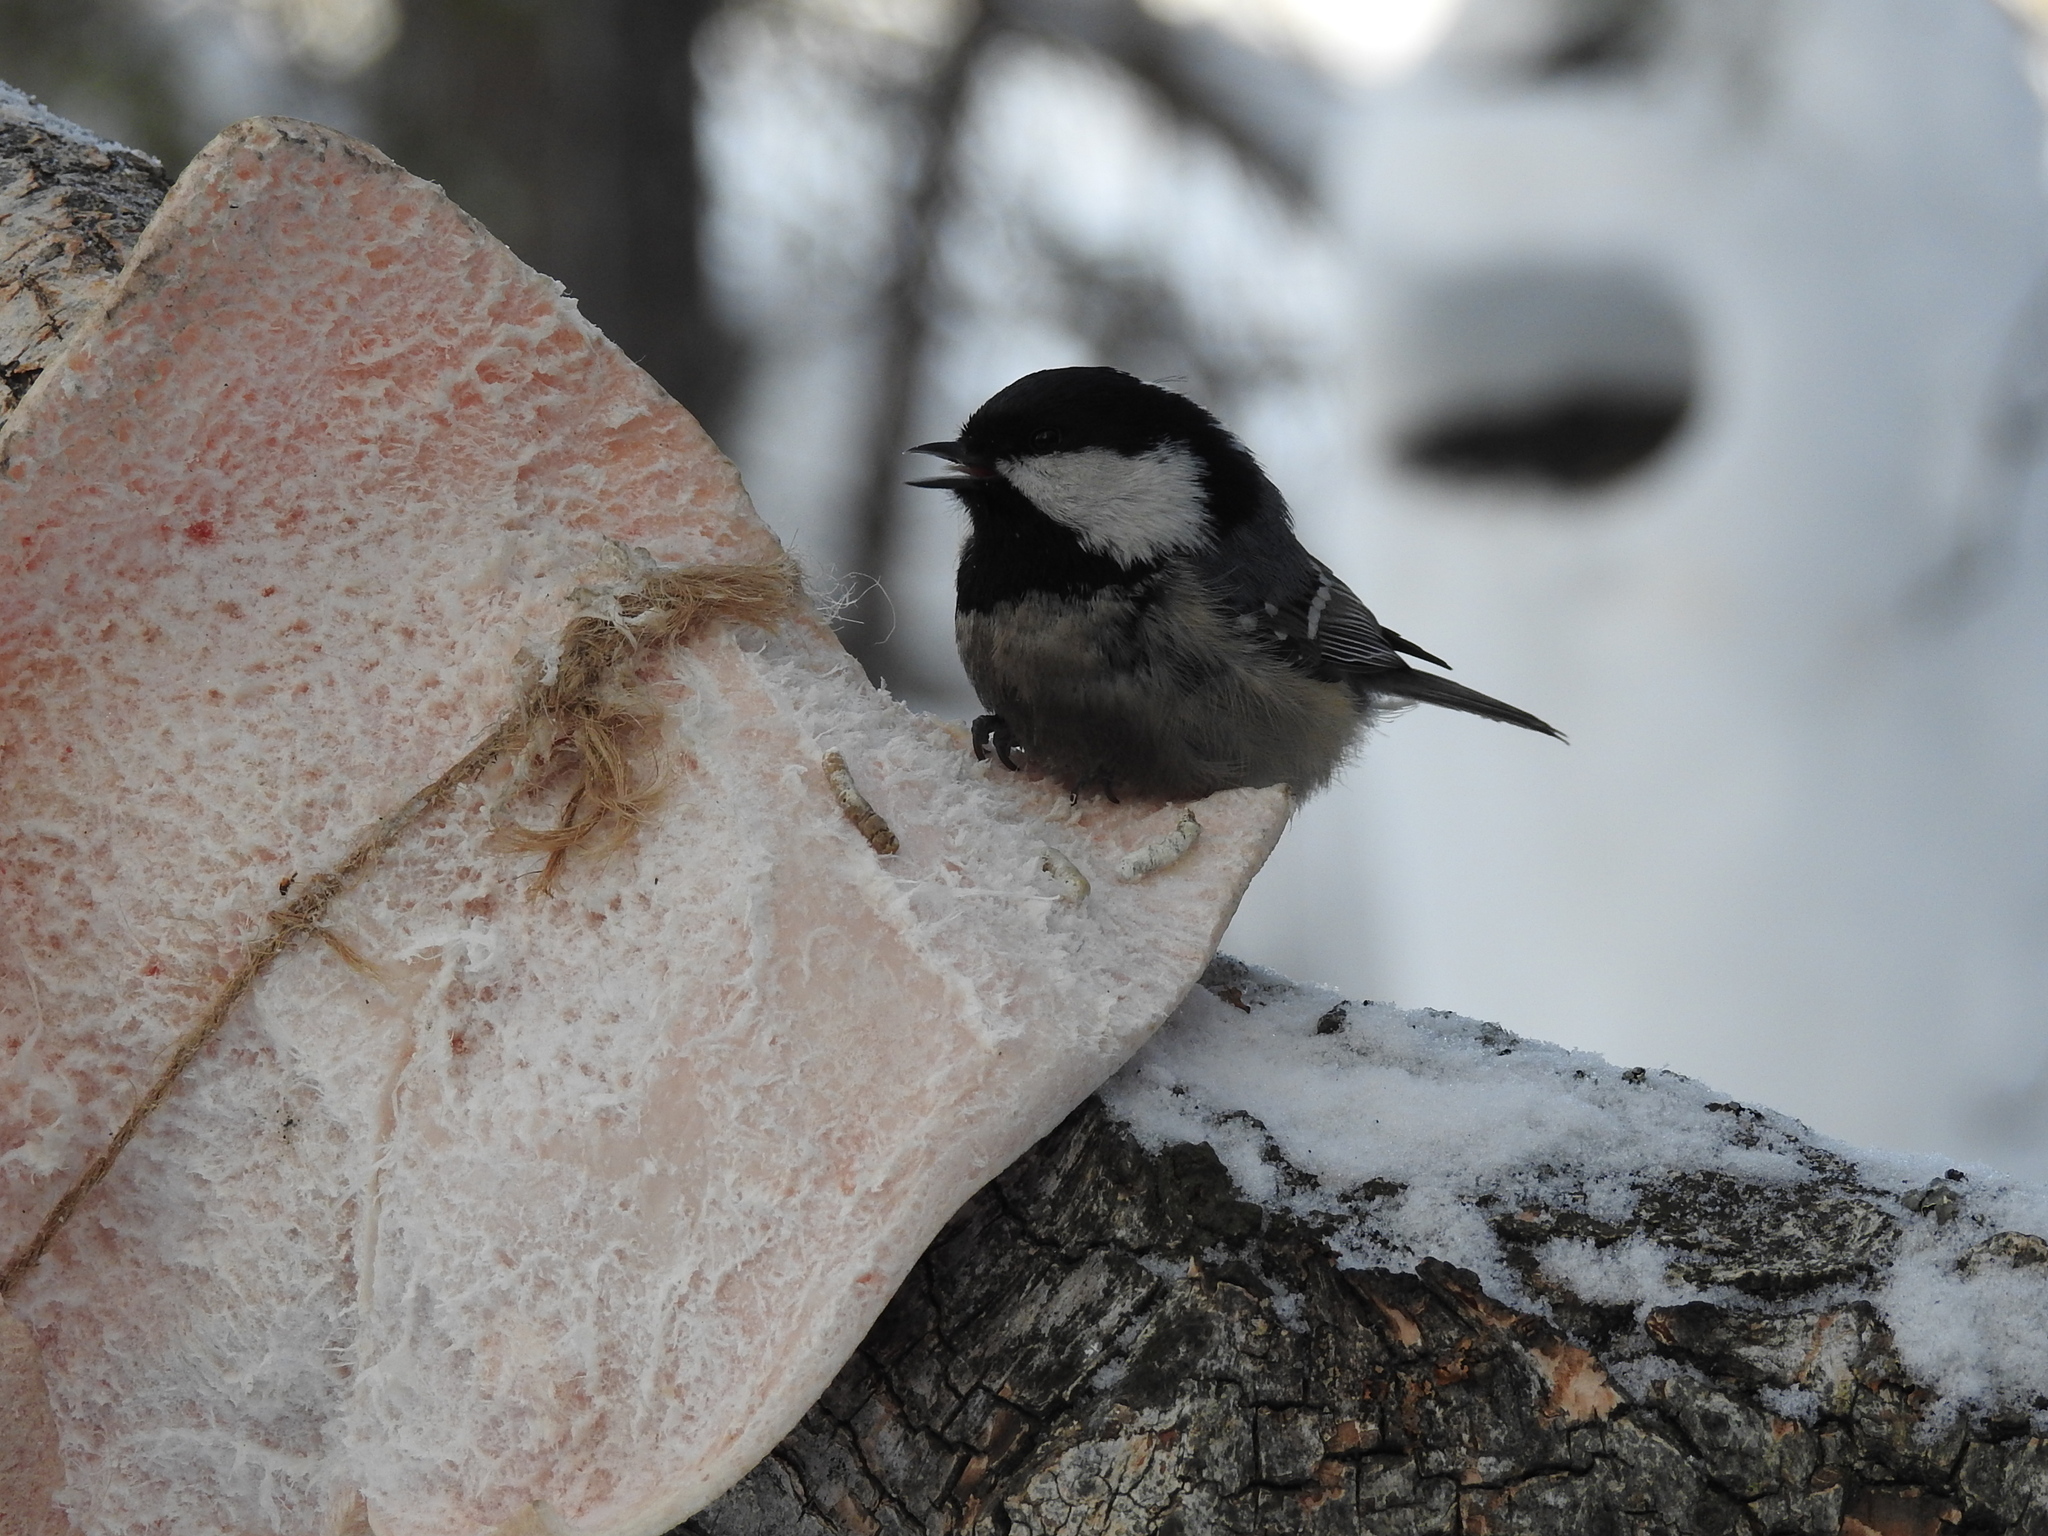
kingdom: Animalia
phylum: Chordata
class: Aves
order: Passeriformes
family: Paridae
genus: Periparus
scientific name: Periparus ater
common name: Coal tit
